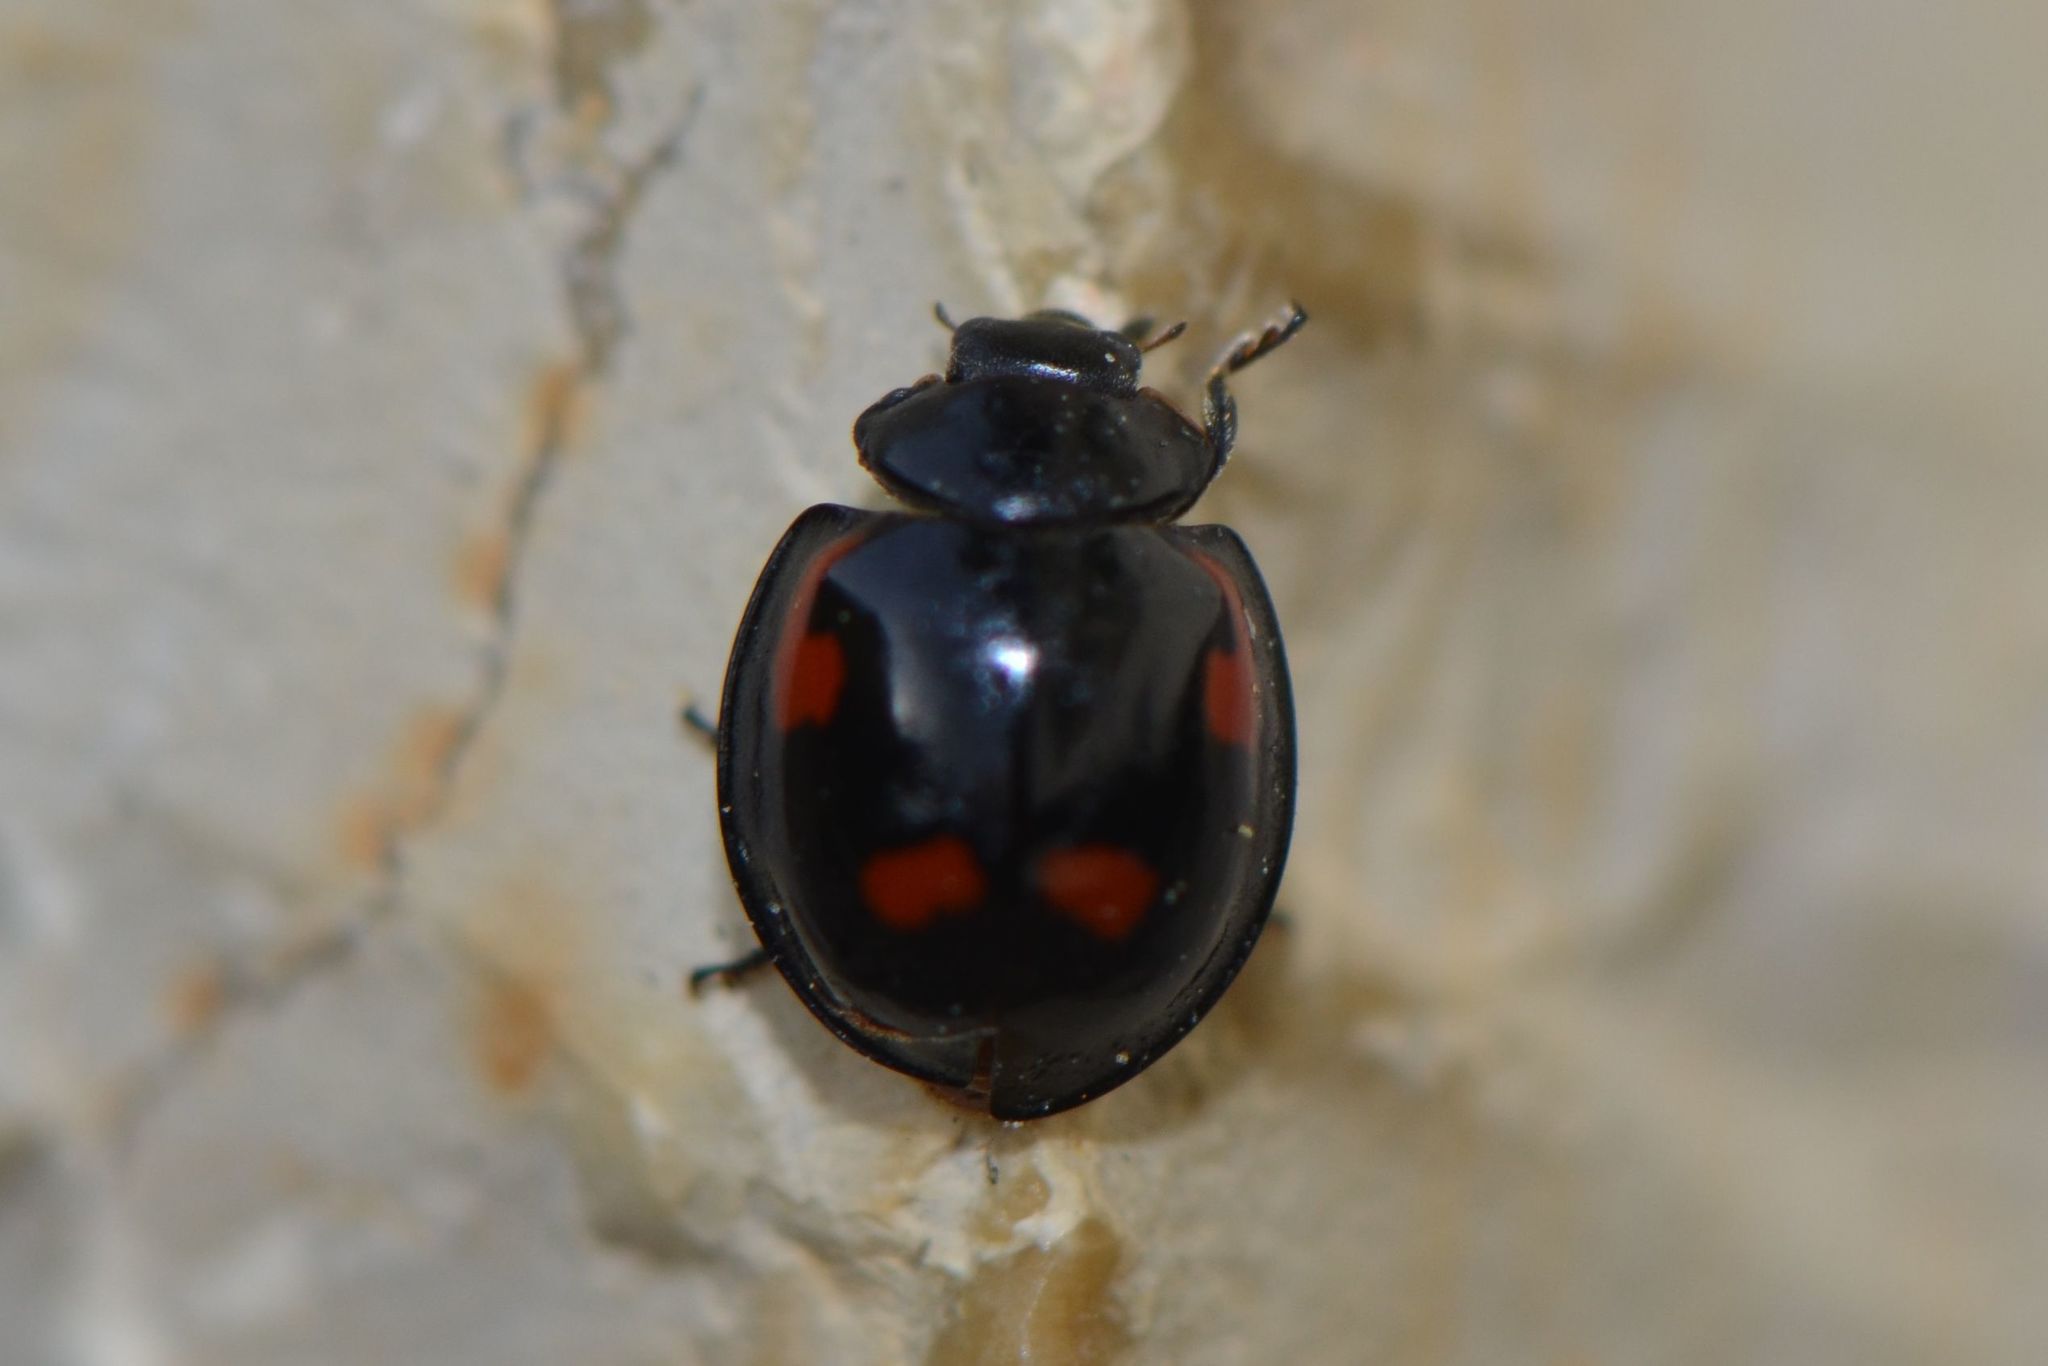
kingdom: Animalia
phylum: Arthropoda
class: Insecta
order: Coleoptera
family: Coccinellidae
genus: Brumus
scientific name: Brumus quadripustulatus
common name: Ladybird beetle
